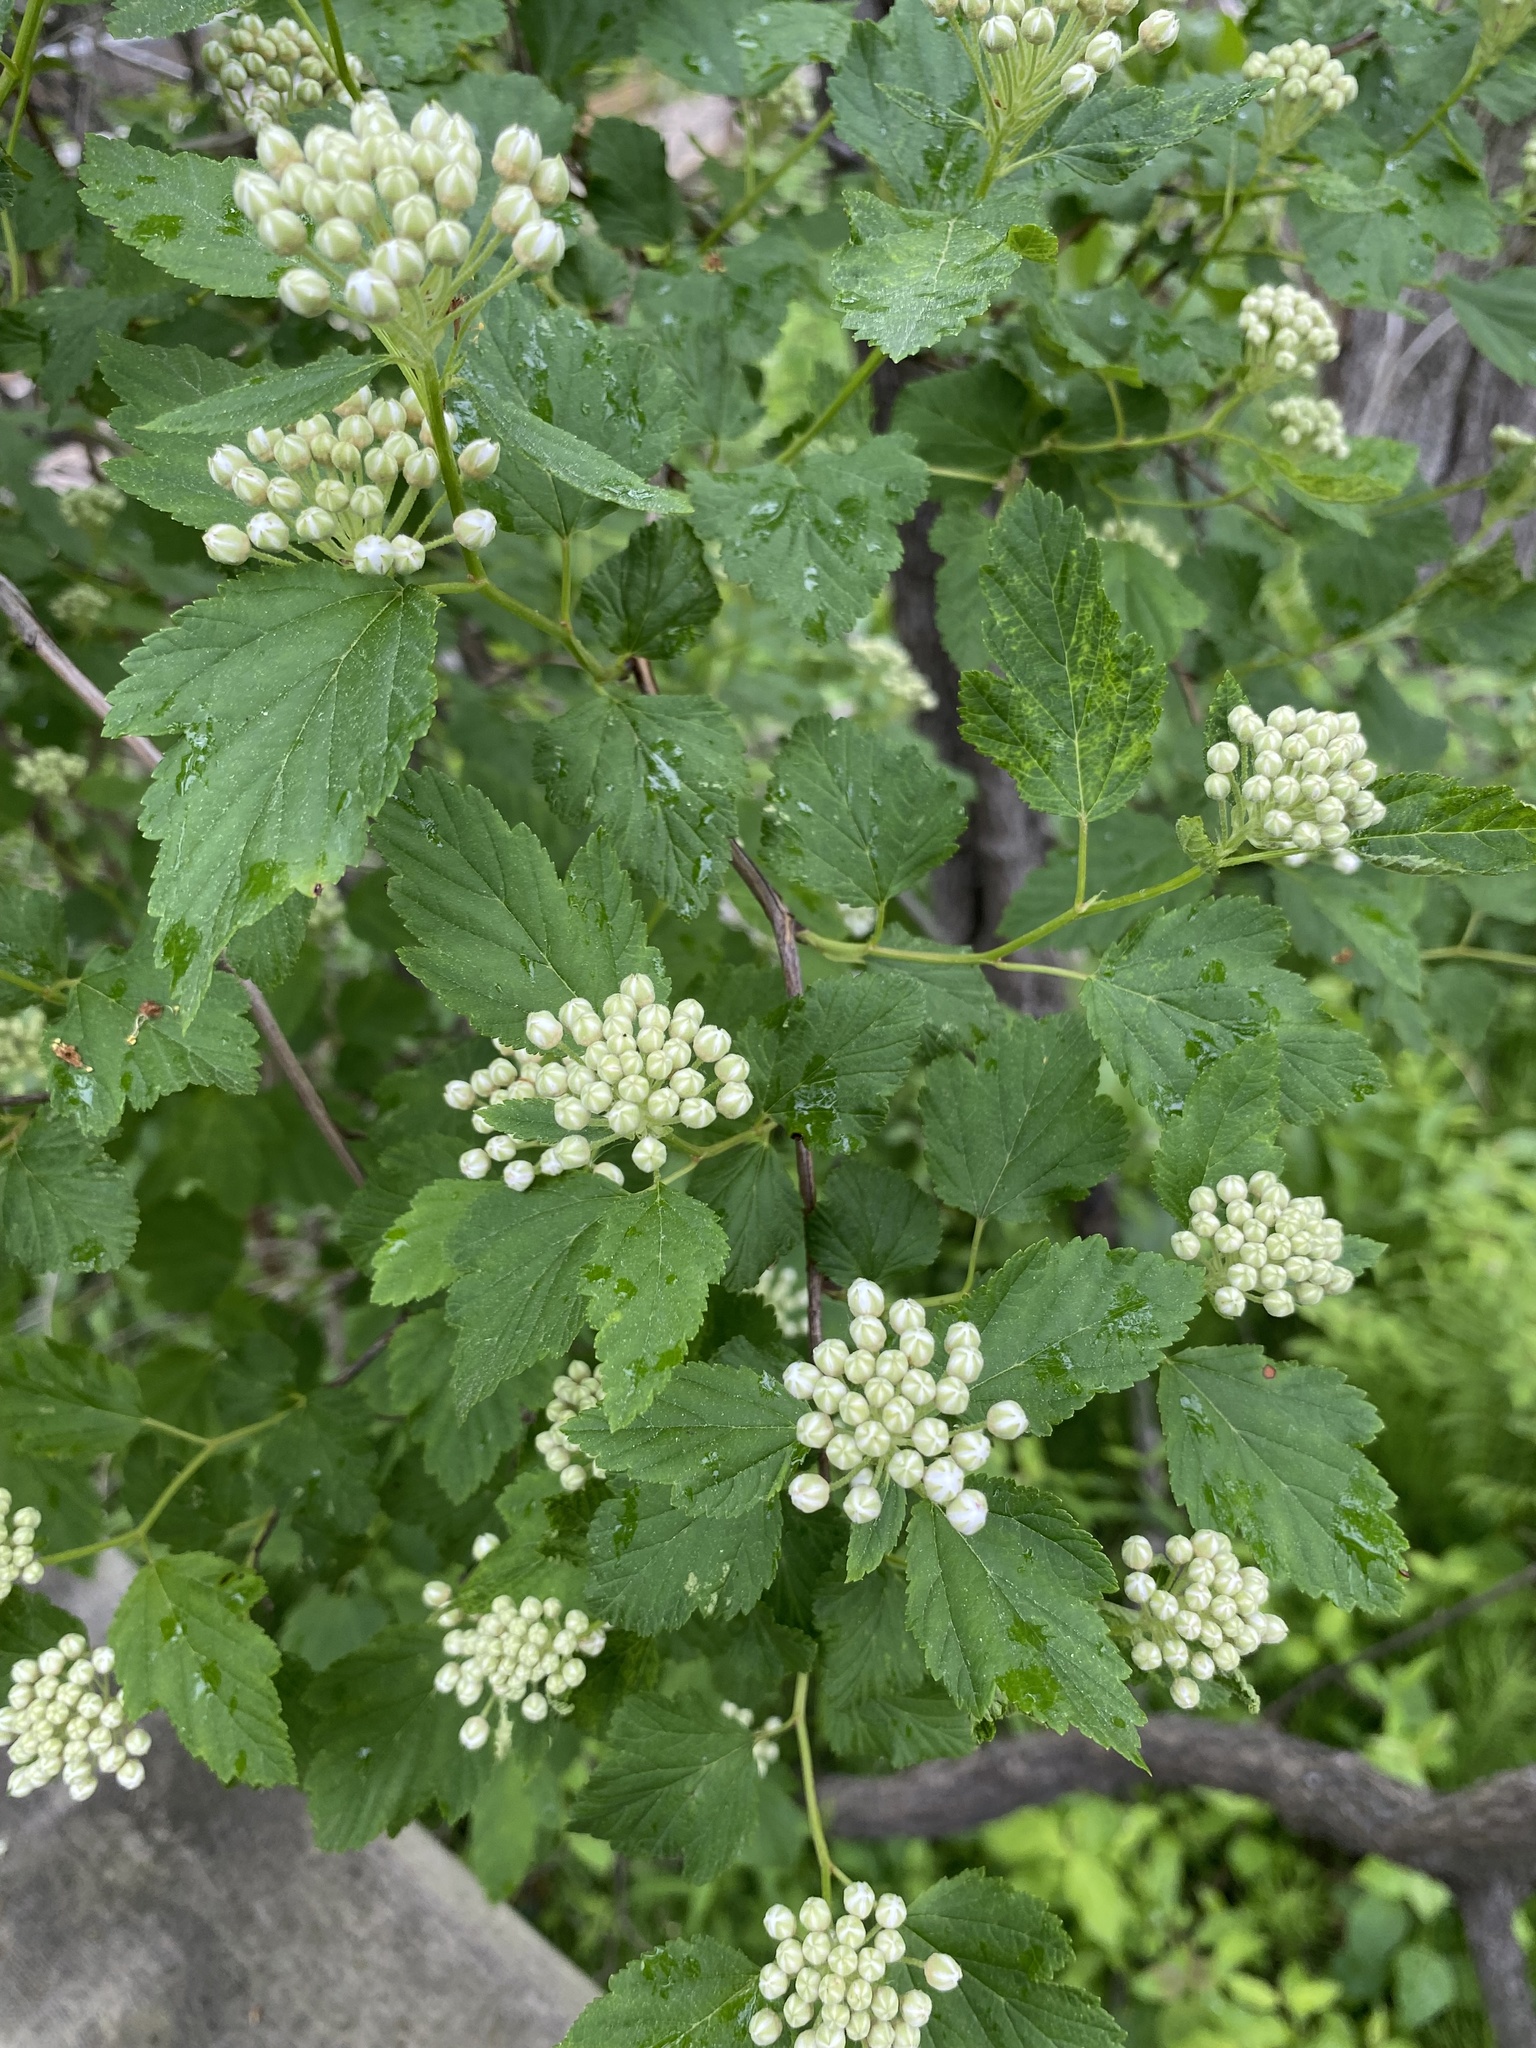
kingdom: Plantae
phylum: Tracheophyta
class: Magnoliopsida
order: Rosales
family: Rosaceae
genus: Physocarpus
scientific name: Physocarpus opulifolius
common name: Ninebark
